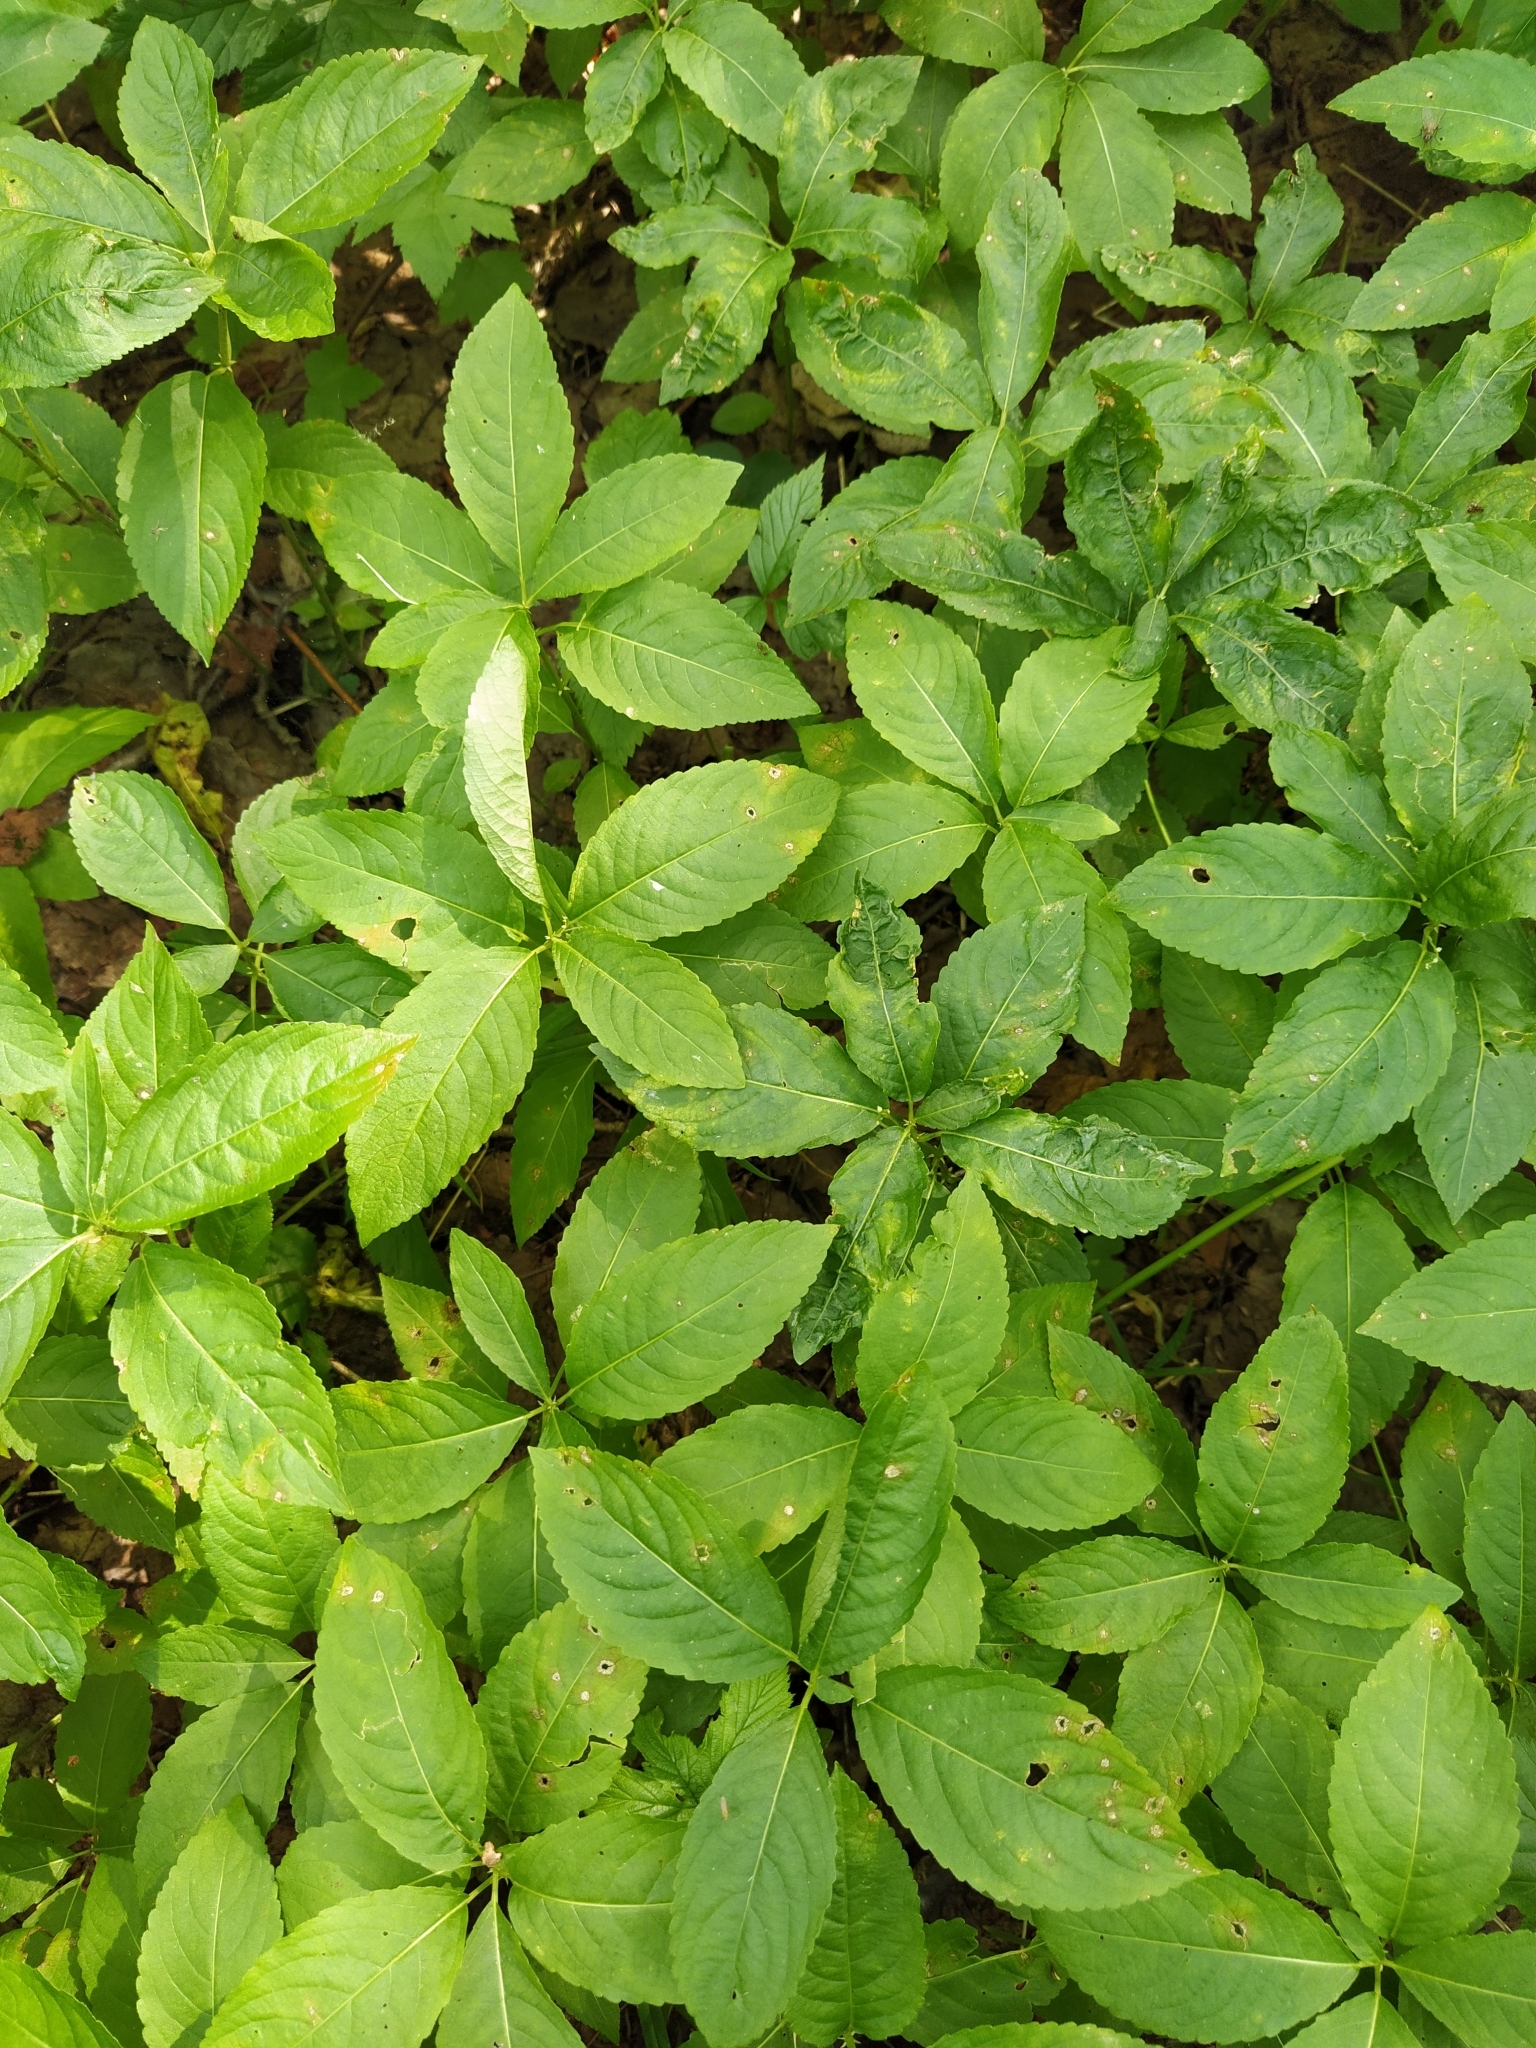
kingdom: Plantae
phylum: Tracheophyta
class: Magnoliopsida
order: Malpighiales
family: Euphorbiaceae
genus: Mercurialis
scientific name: Mercurialis perennis
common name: Dog mercury
